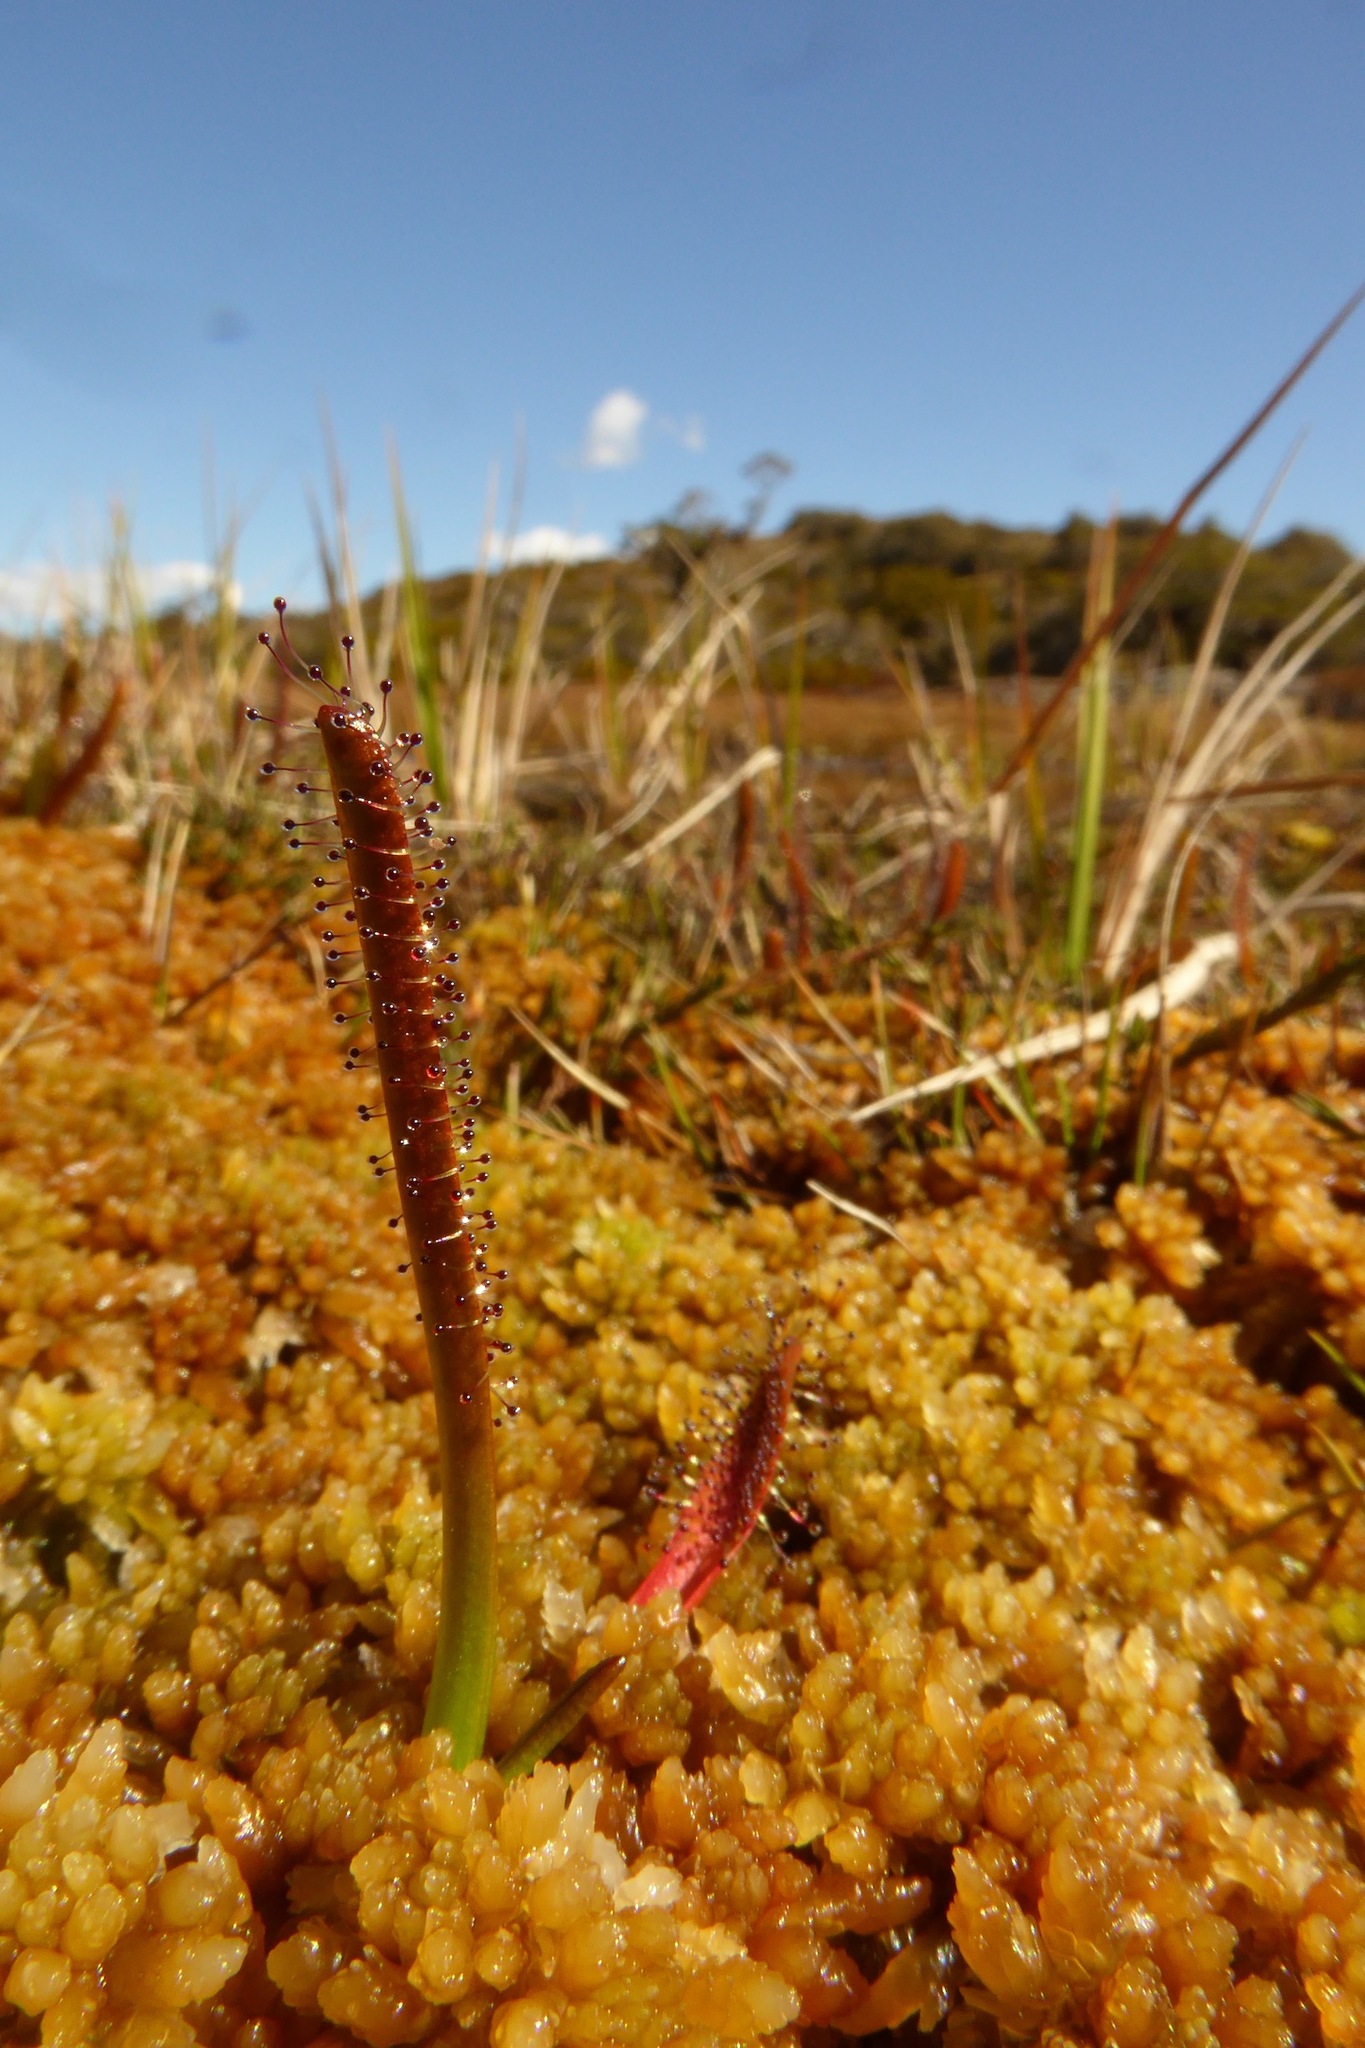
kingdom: Plantae
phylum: Tracheophyta
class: Magnoliopsida
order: Caryophyllales
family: Droseraceae
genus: Drosera
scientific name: Drosera arcturi
